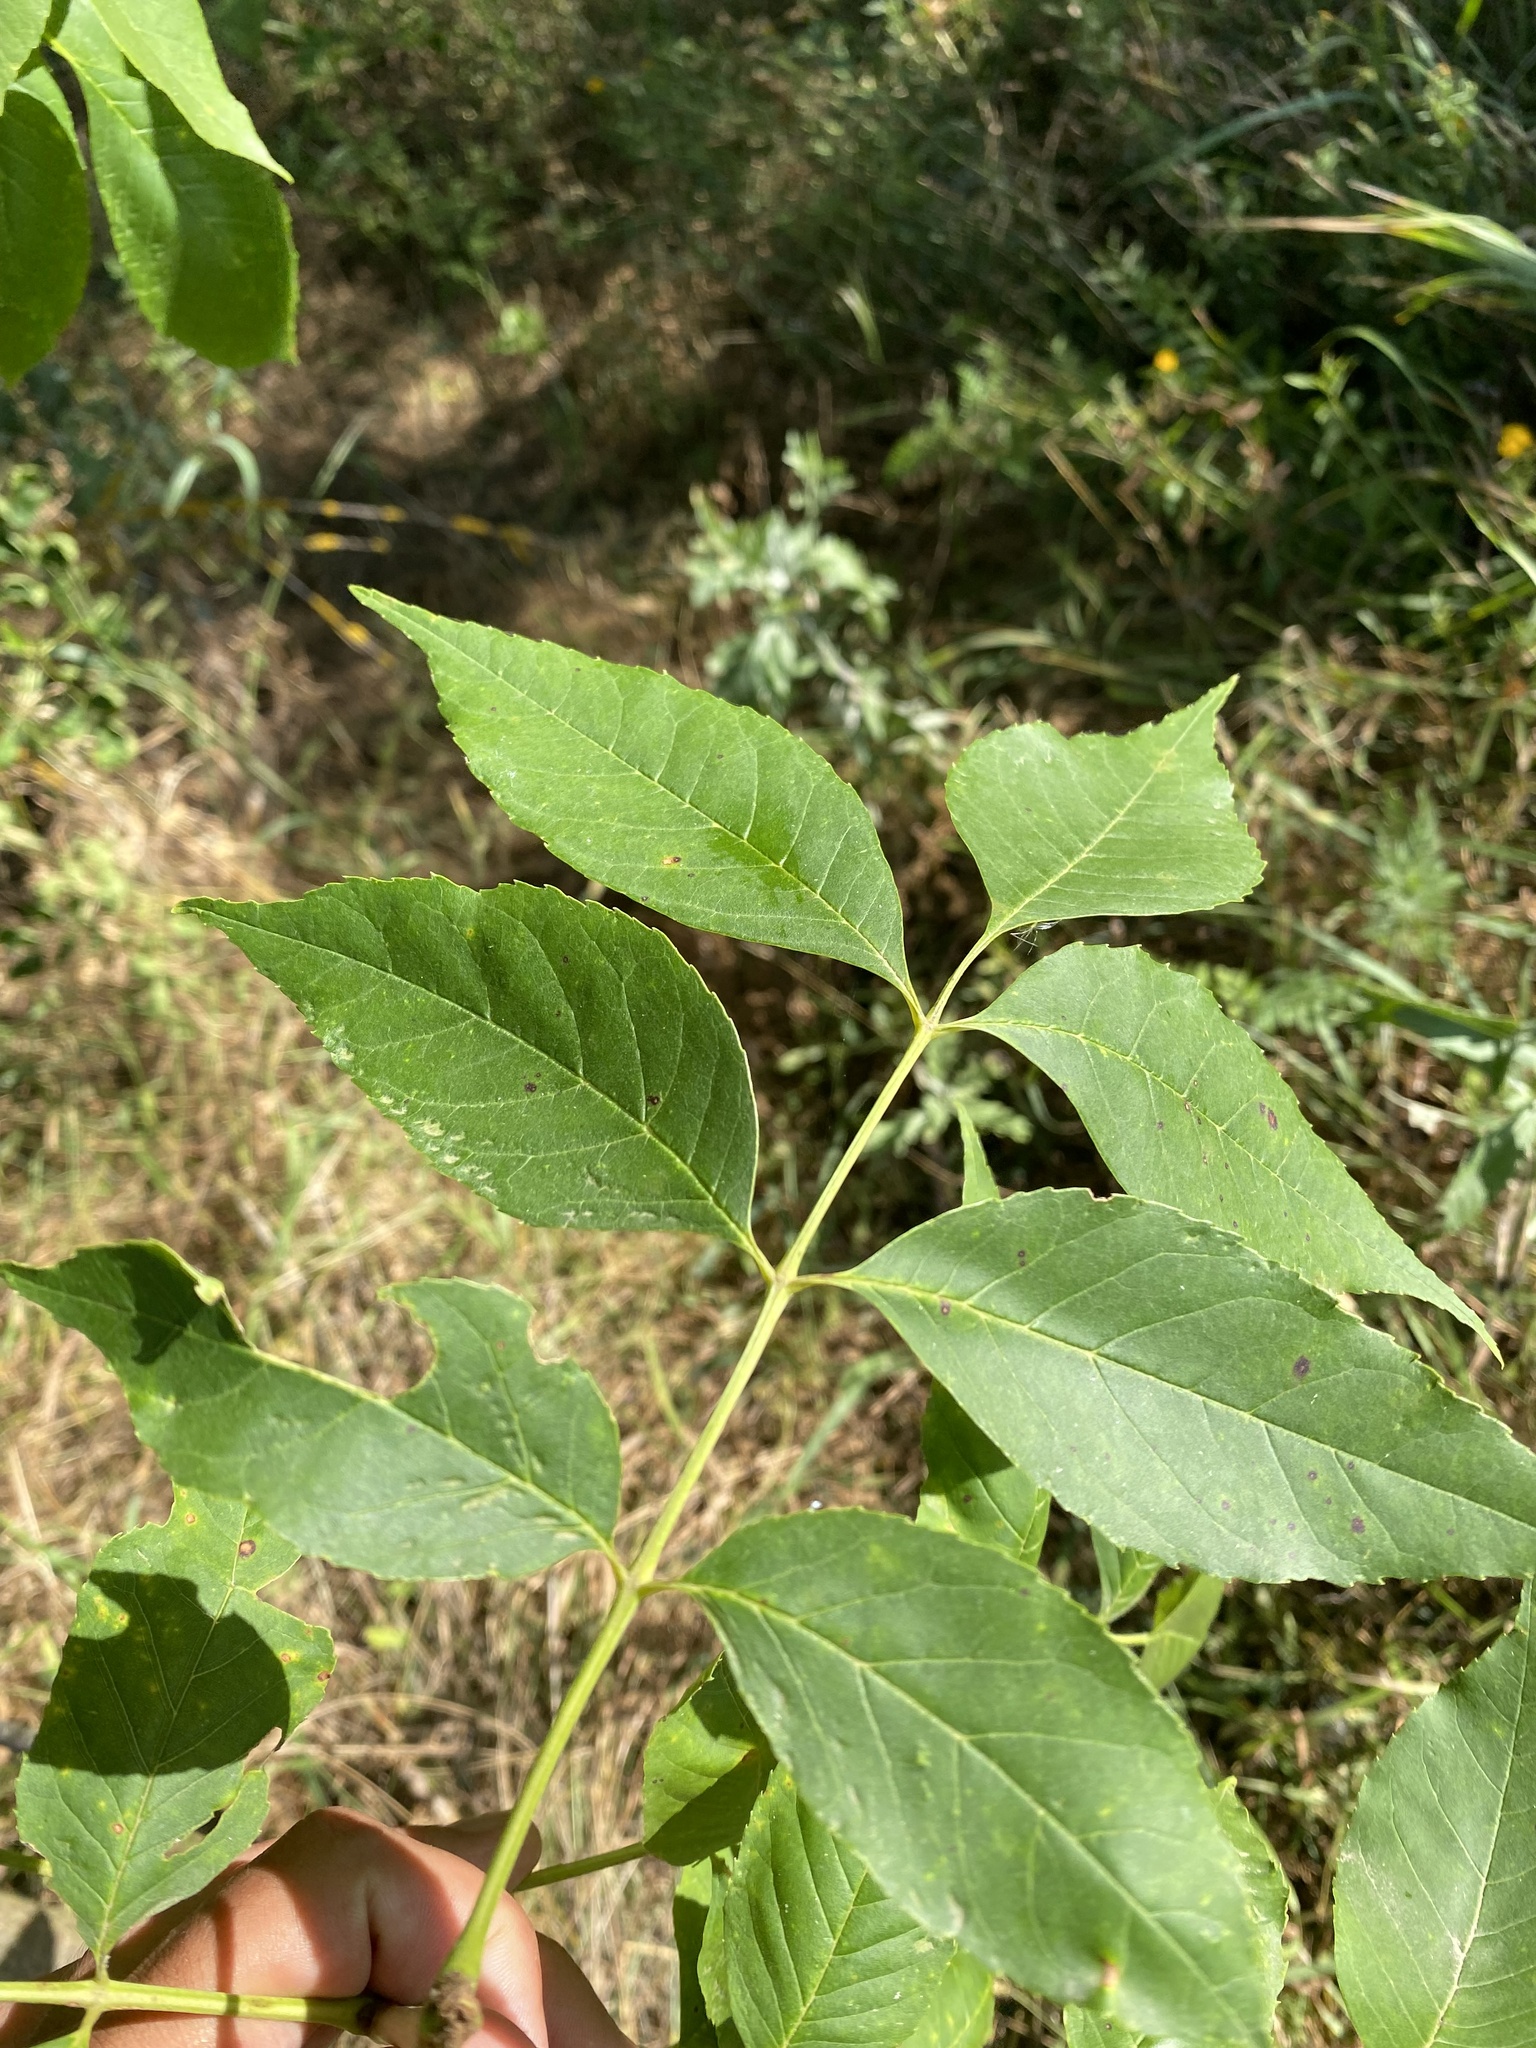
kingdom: Plantae
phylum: Tracheophyta
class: Magnoliopsida
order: Lamiales
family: Oleaceae
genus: Fraxinus
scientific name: Fraxinus excelsior
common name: European ash
